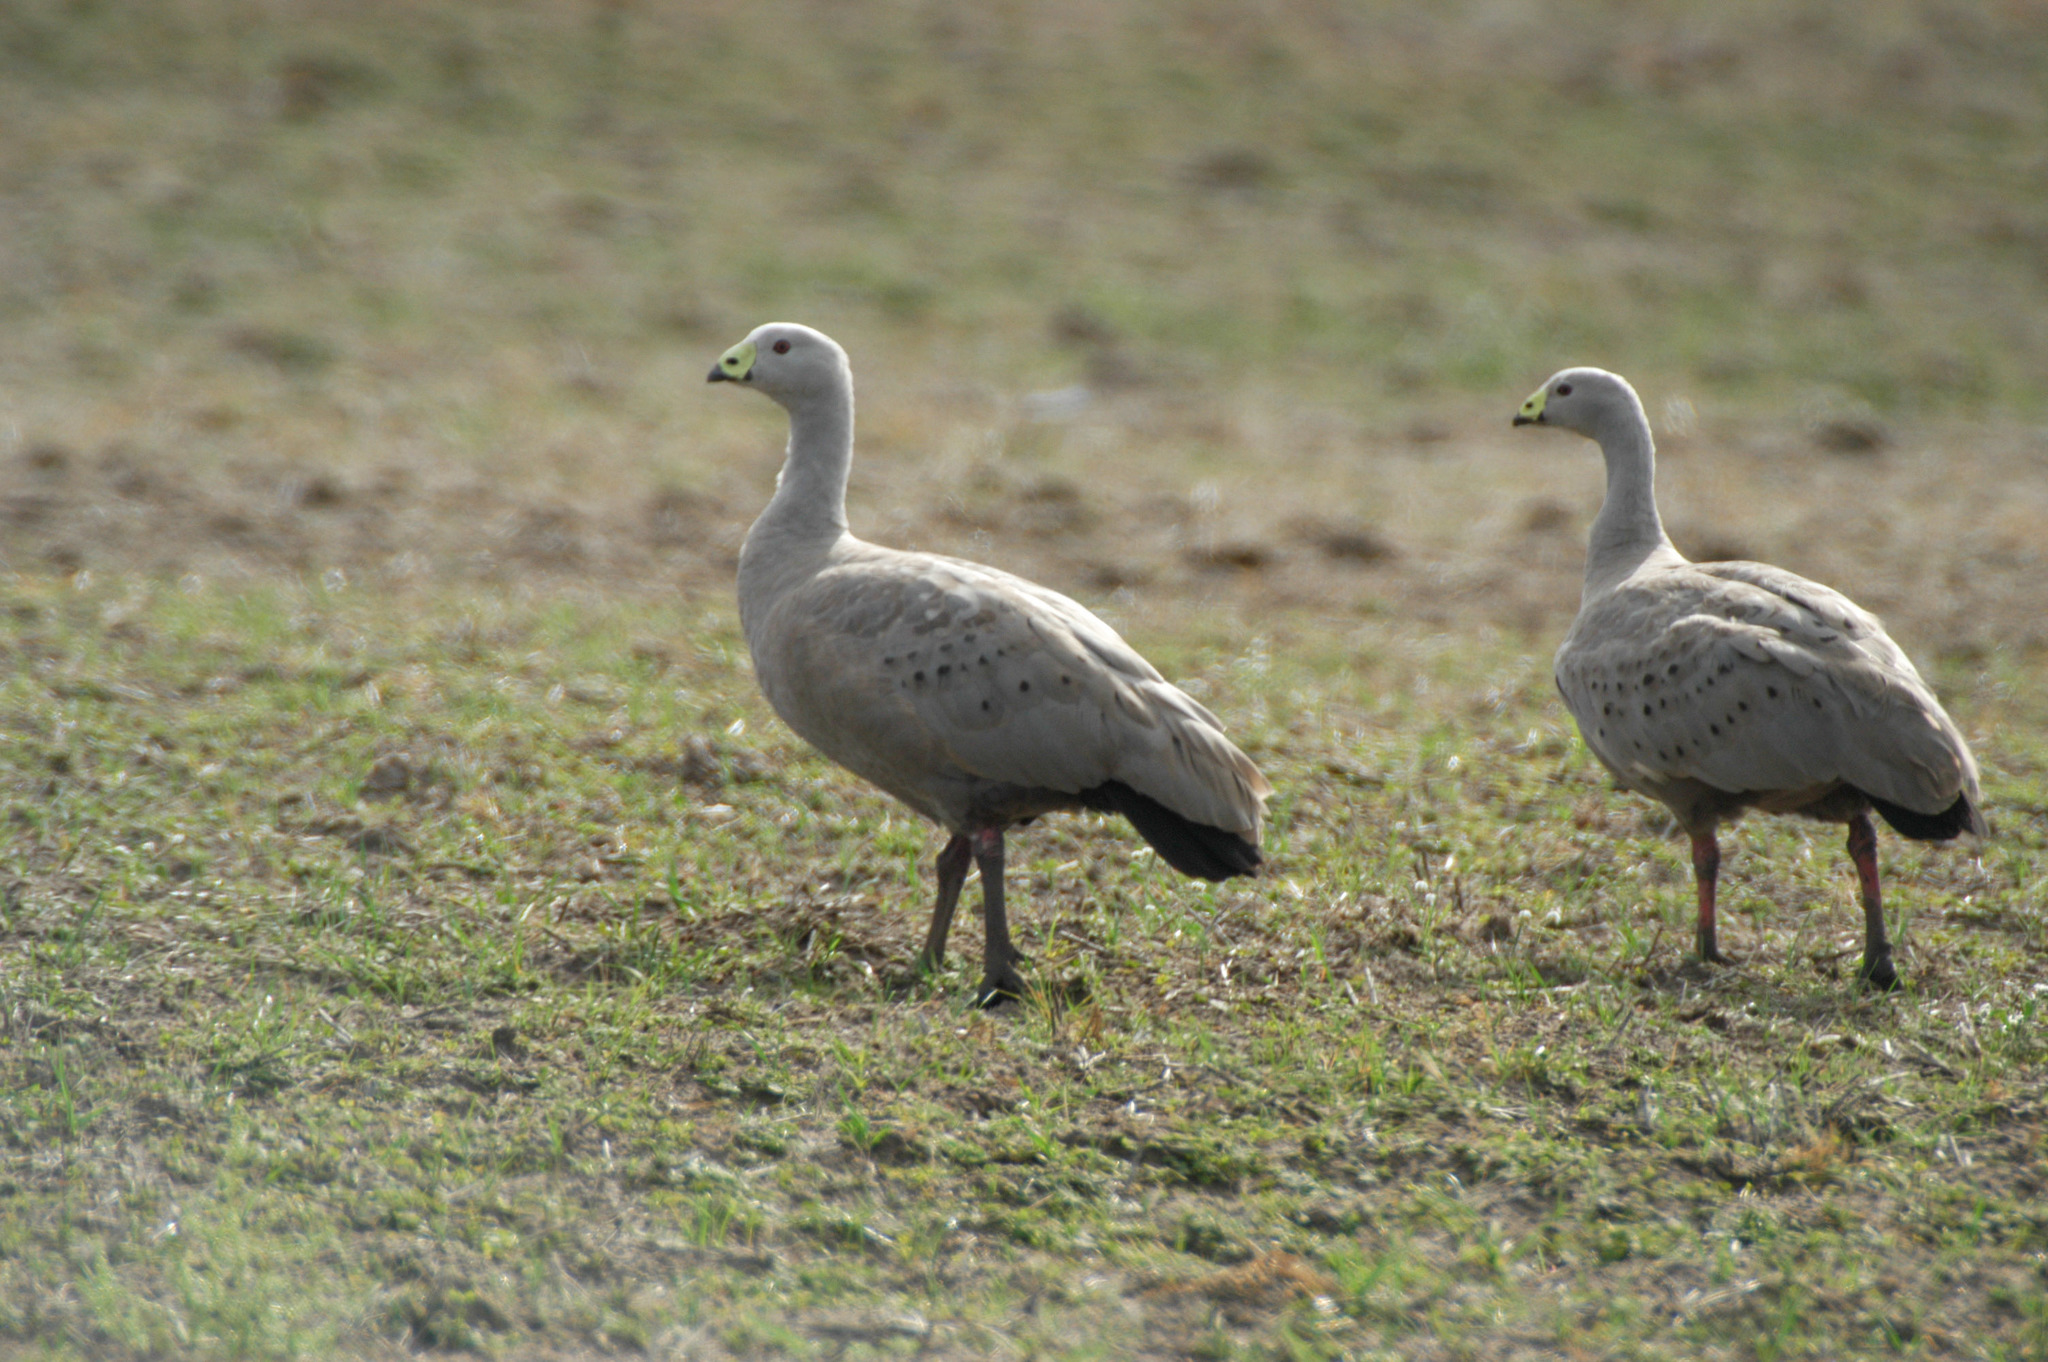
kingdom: Animalia
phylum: Chordata
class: Aves
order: Anseriformes
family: Anatidae
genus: Cereopsis
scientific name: Cereopsis novaehollandiae
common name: Cape barren goose
